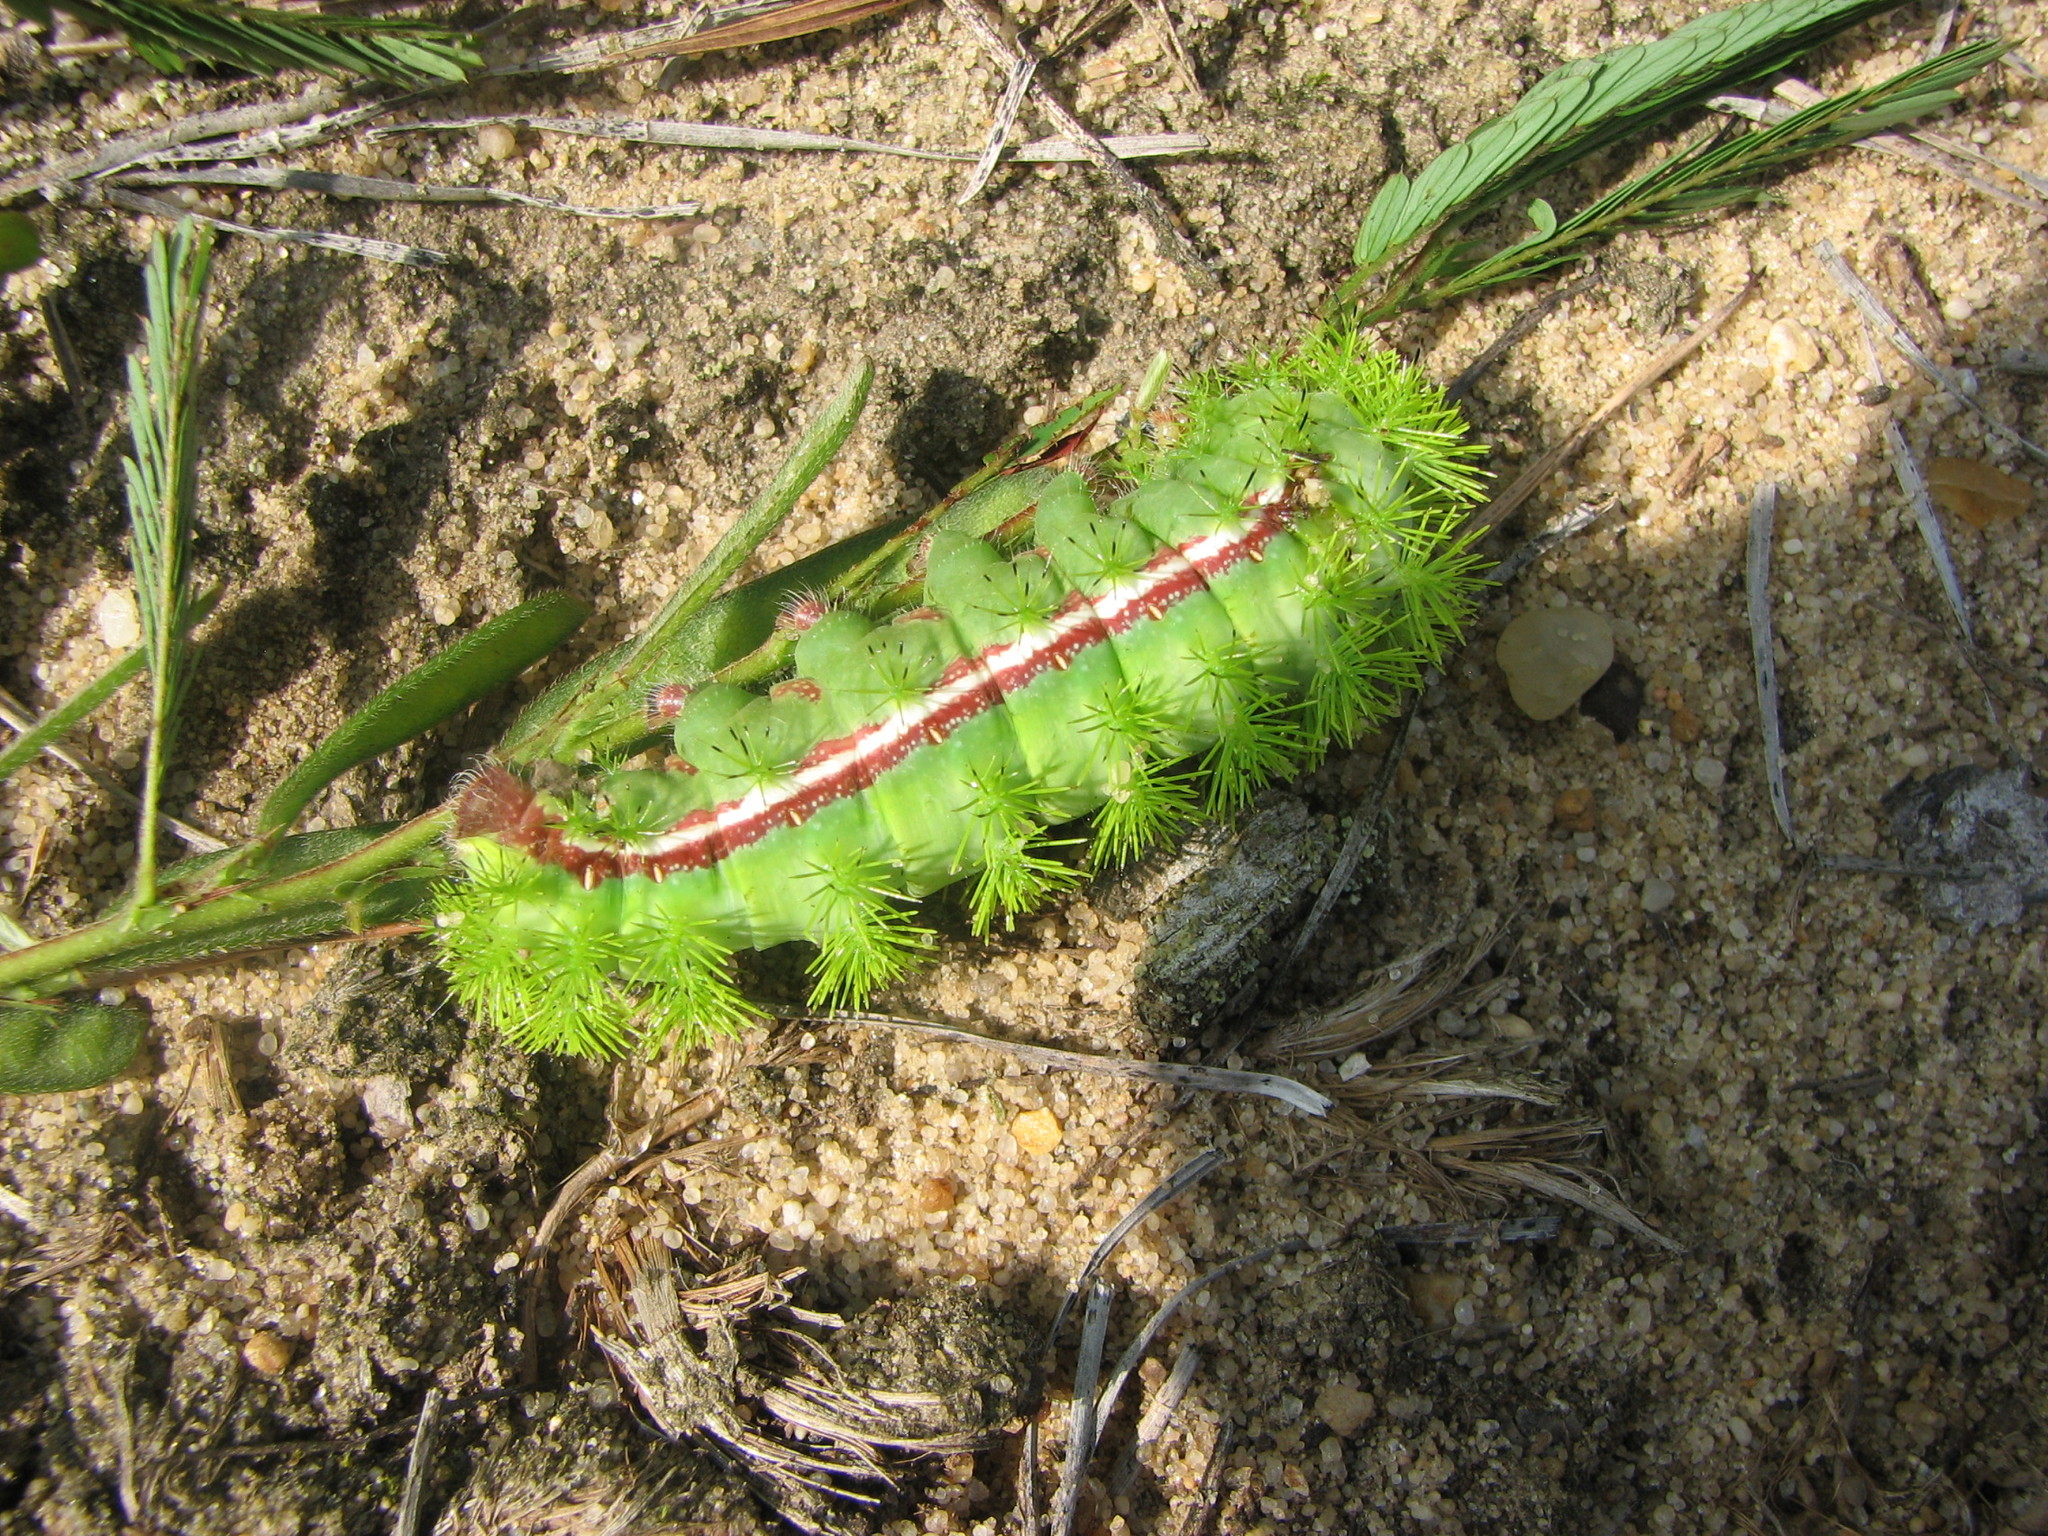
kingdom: Animalia
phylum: Arthropoda
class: Insecta
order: Lepidoptera
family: Saturniidae
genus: Automeris
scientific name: Automeris io
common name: Io moth
